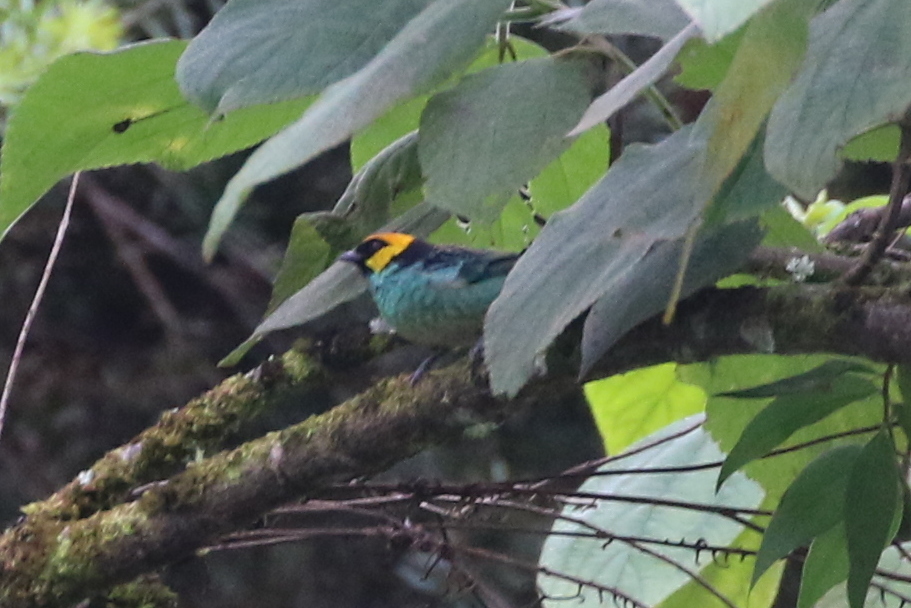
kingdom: Animalia
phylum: Chordata
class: Aves
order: Passeriformes
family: Thraupidae
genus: Tangara
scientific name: Tangara xanthocephala
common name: Saffron-crowned tanager
